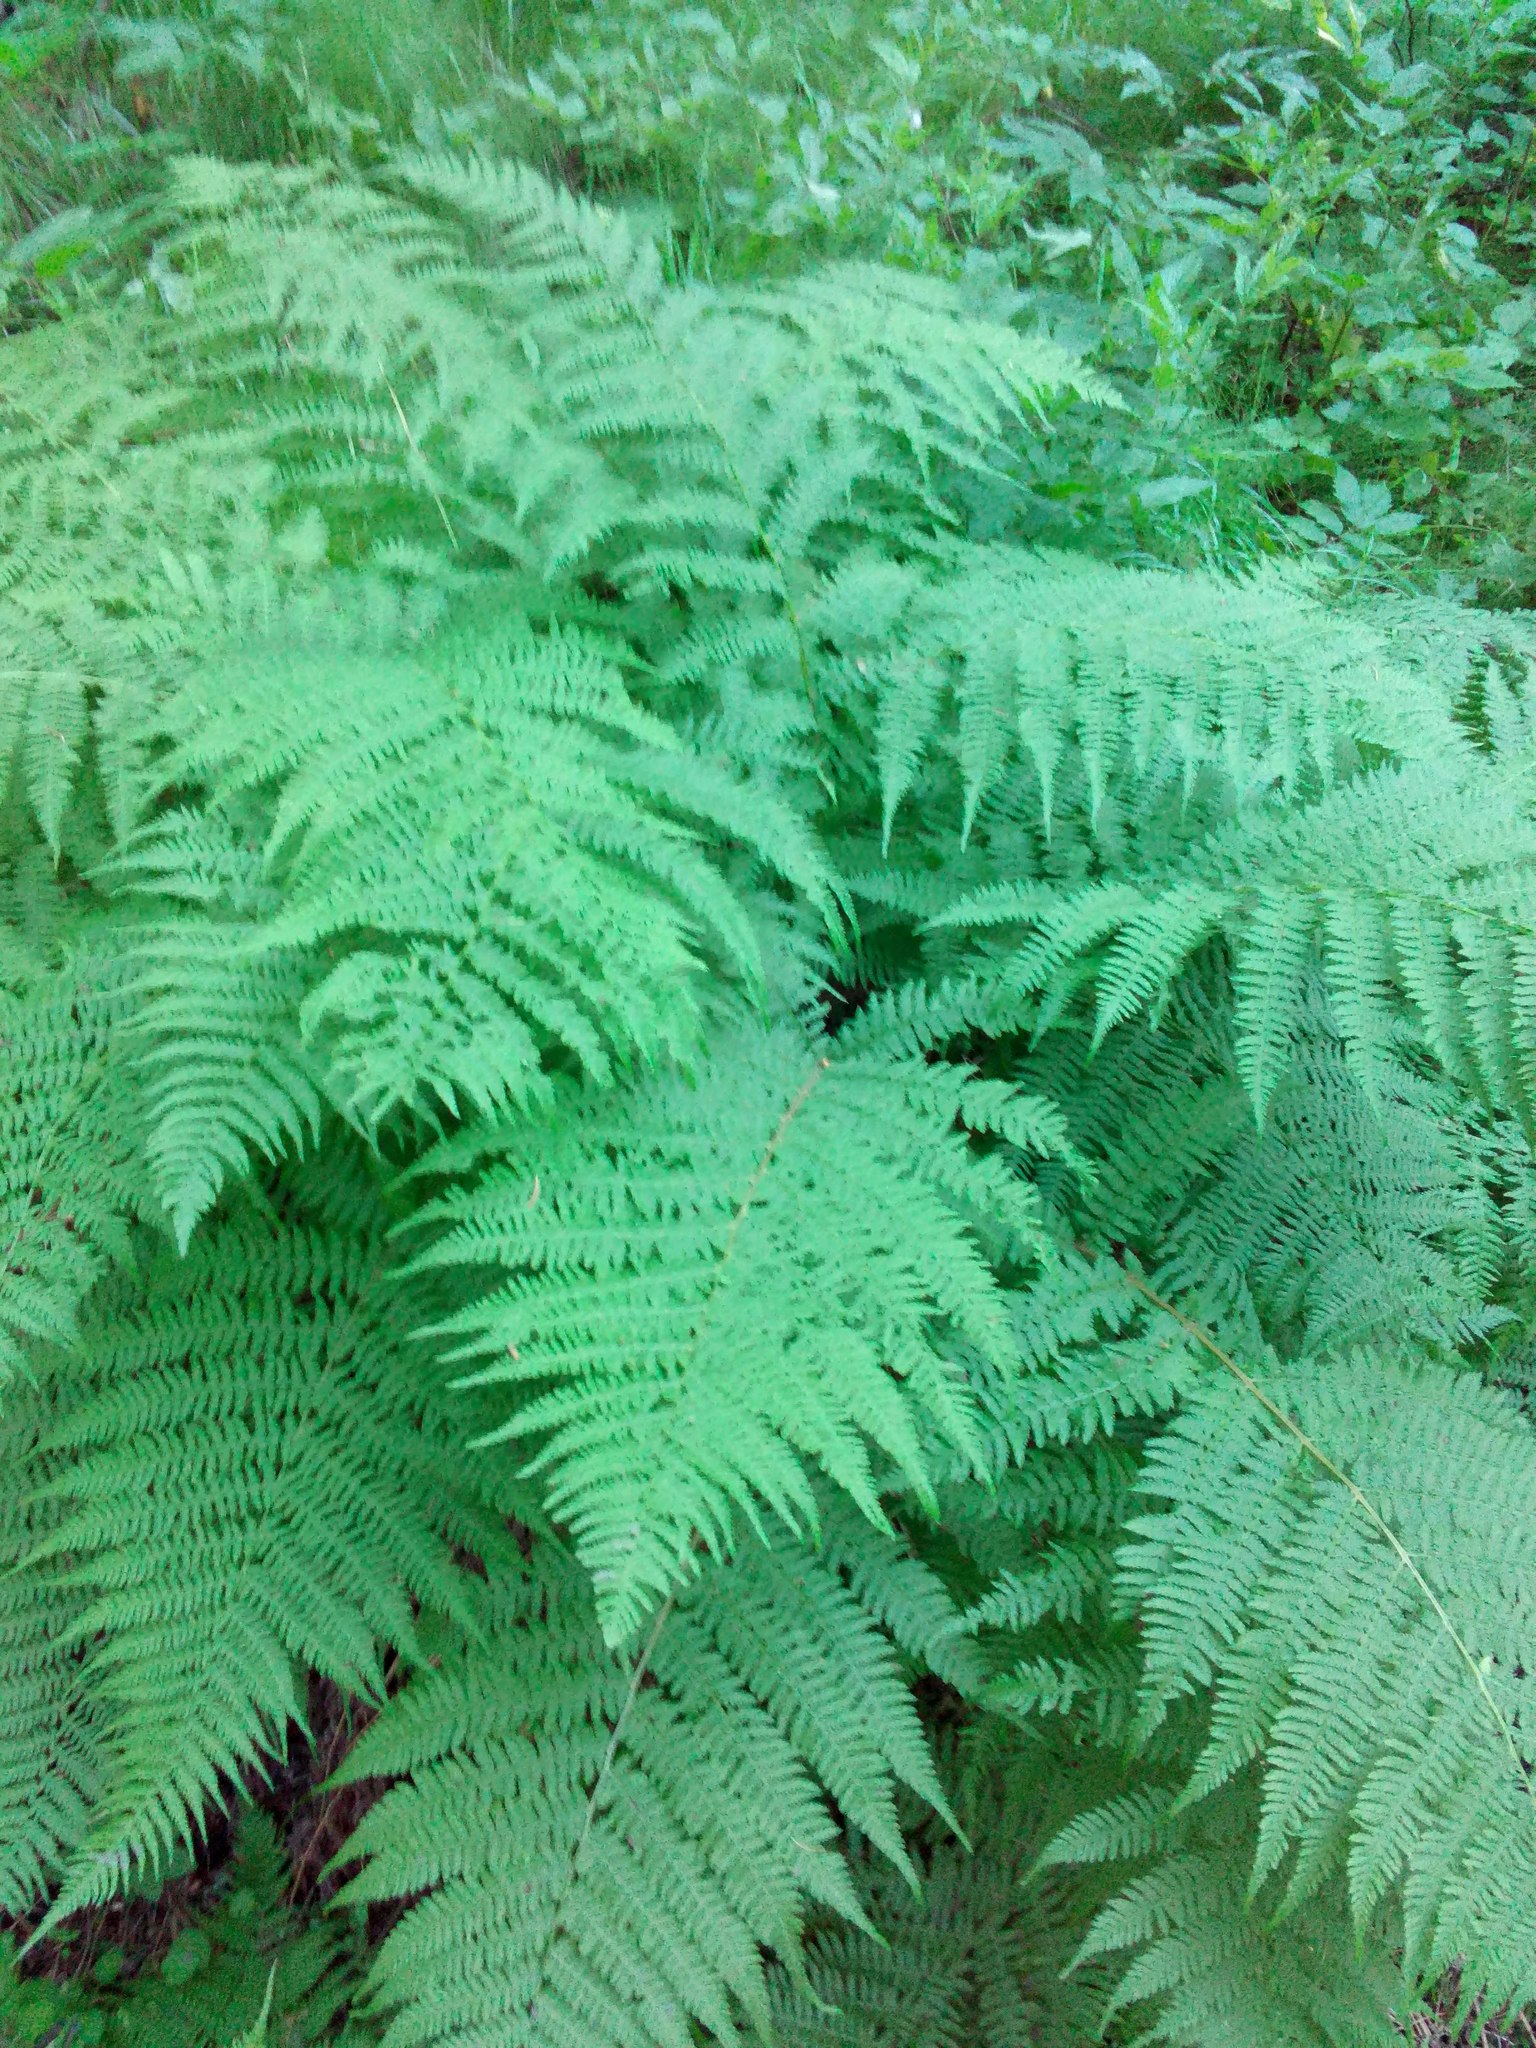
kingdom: Plantae
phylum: Tracheophyta
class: Polypodiopsida
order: Polypodiales
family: Athyriaceae
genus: Athyrium
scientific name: Athyrium filix-femina
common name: Lady fern
